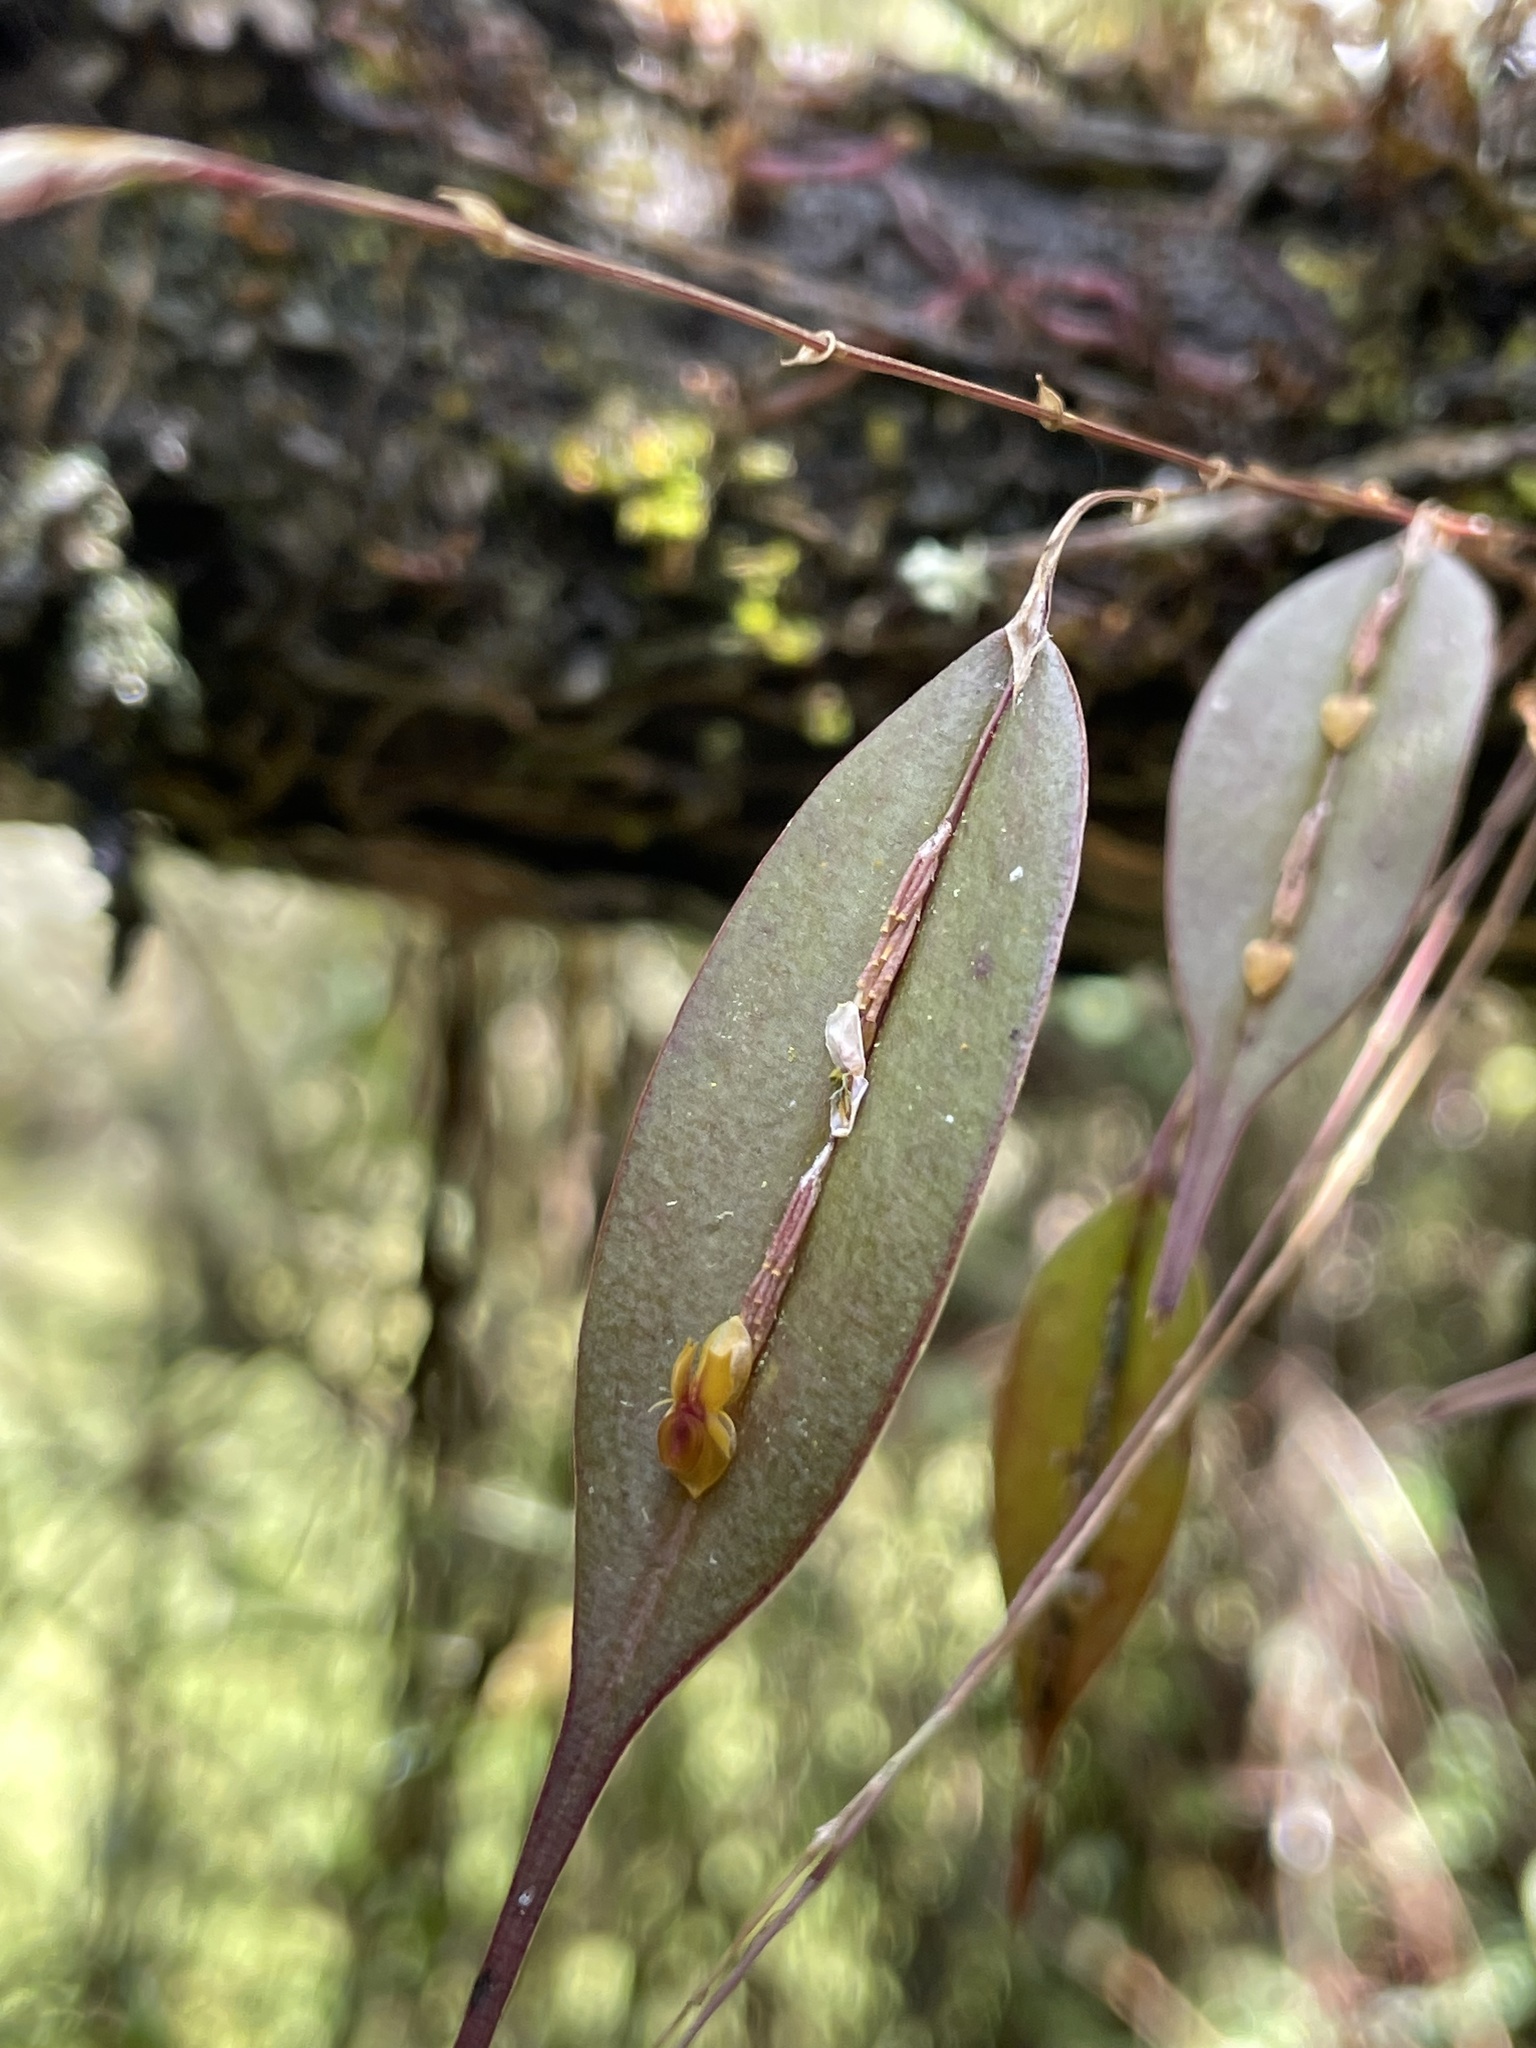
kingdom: Plantae
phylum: Tracheophyta
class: Liliopsida
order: Asparagales
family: Orchidaceae
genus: Lepanthes
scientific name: Lepanthes mucronata
